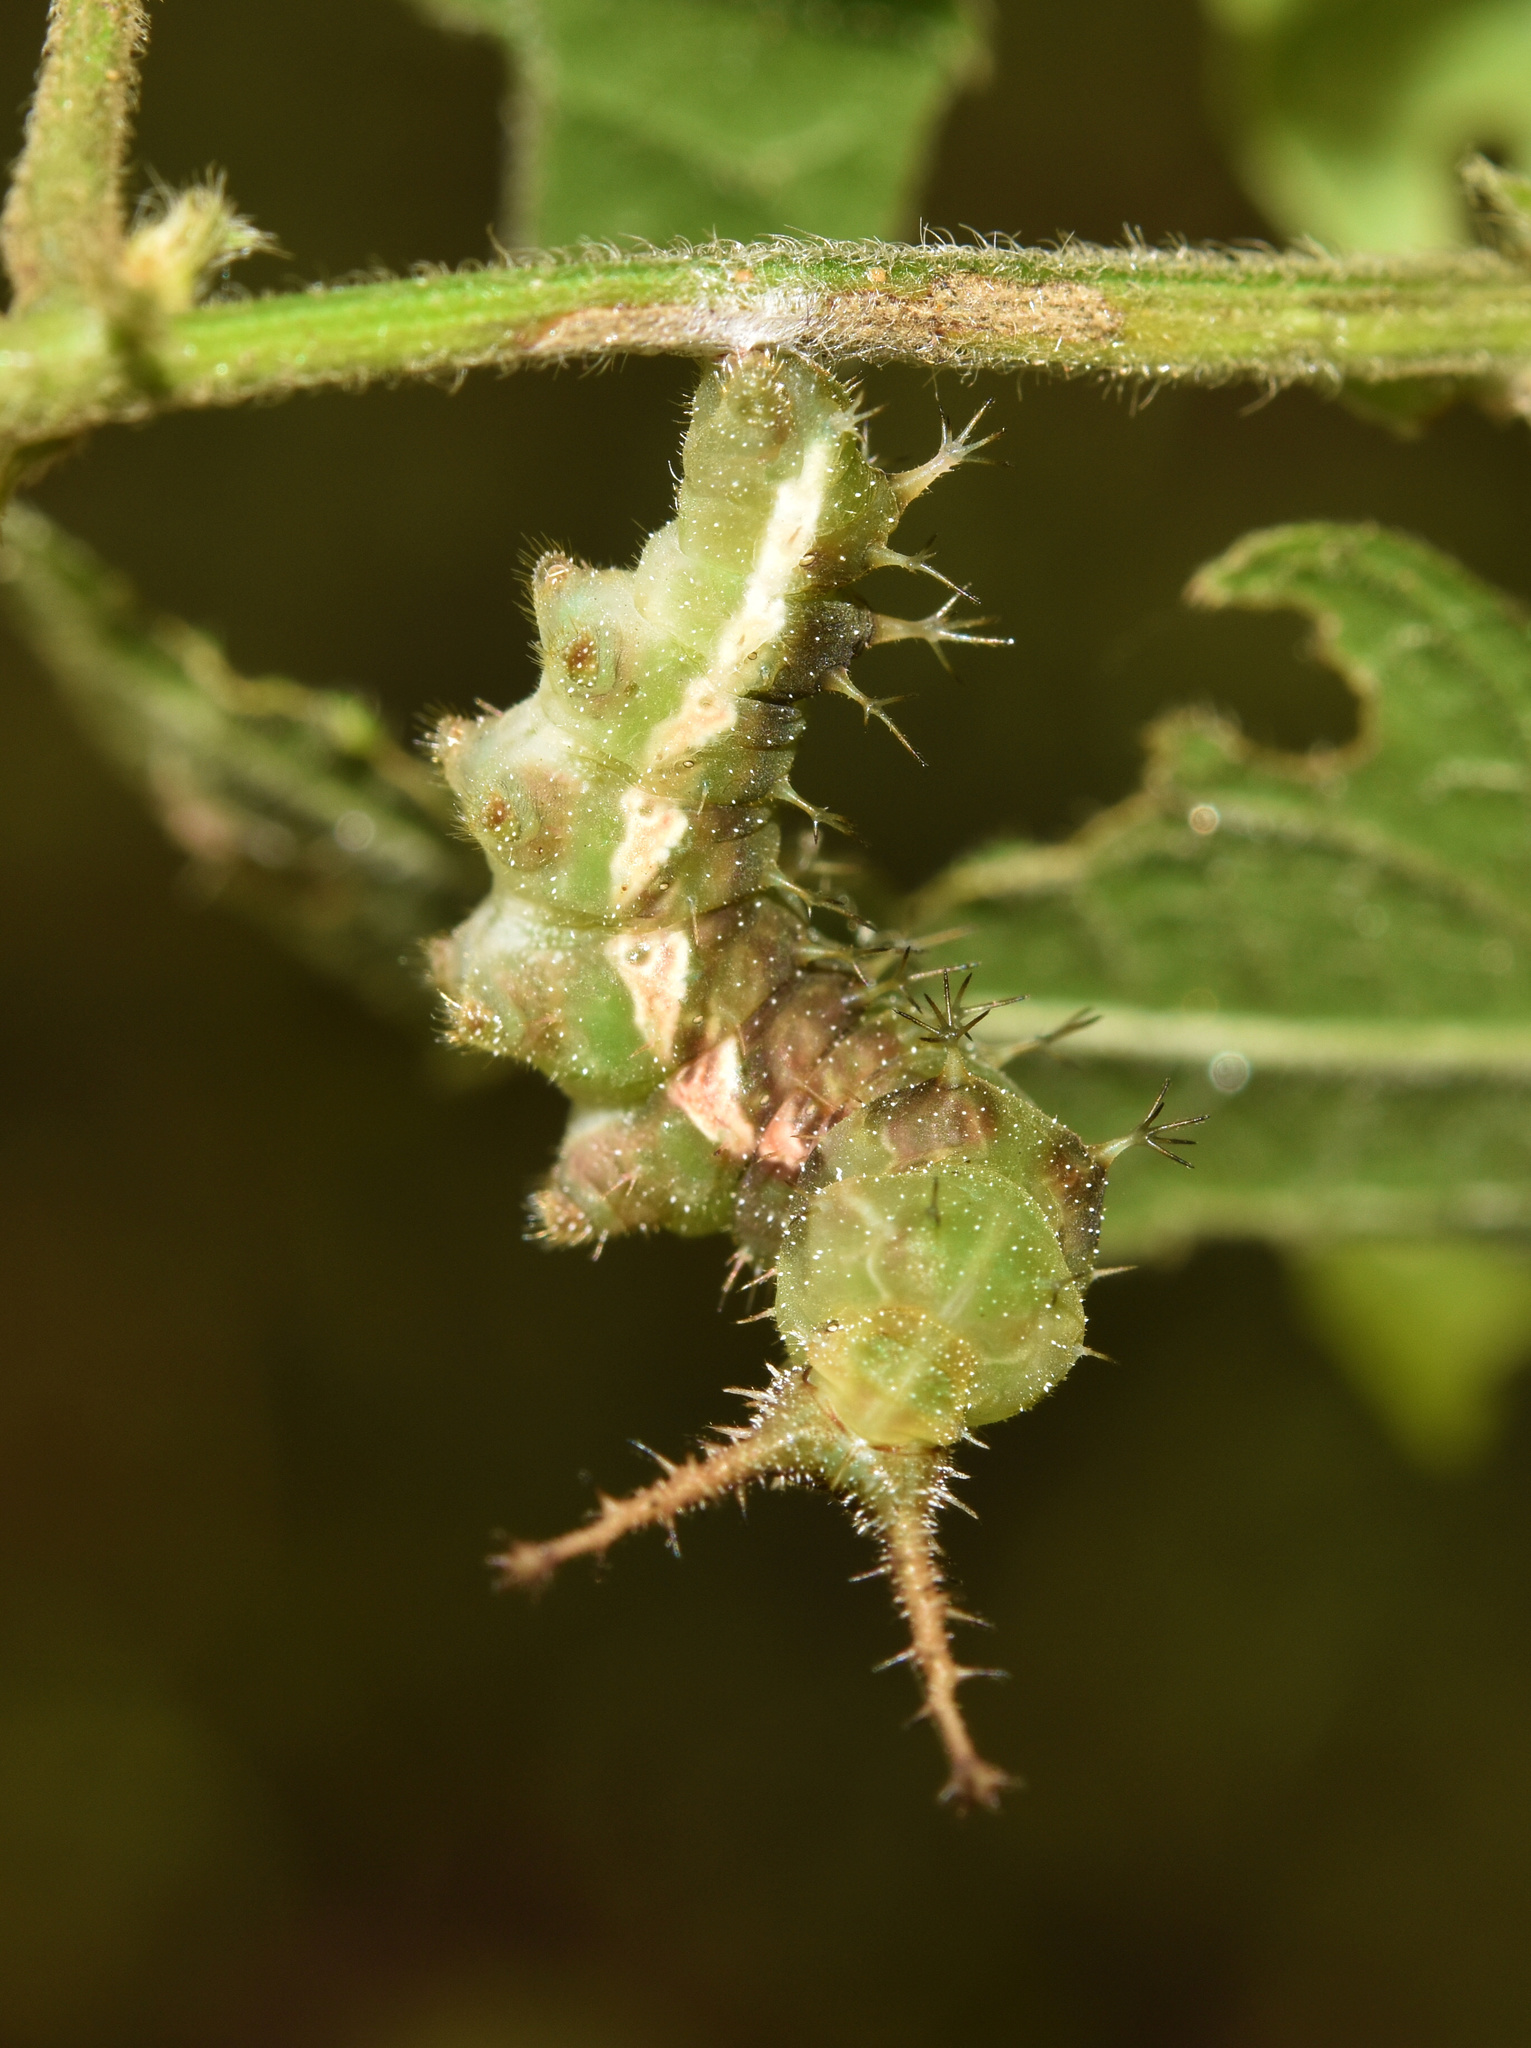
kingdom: Animalia
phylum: Arthropoda
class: Insecta
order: Lepidoptera
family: Nymphalidae
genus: Eurytela
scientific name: Eurytela hiarbas
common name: Pied piper
